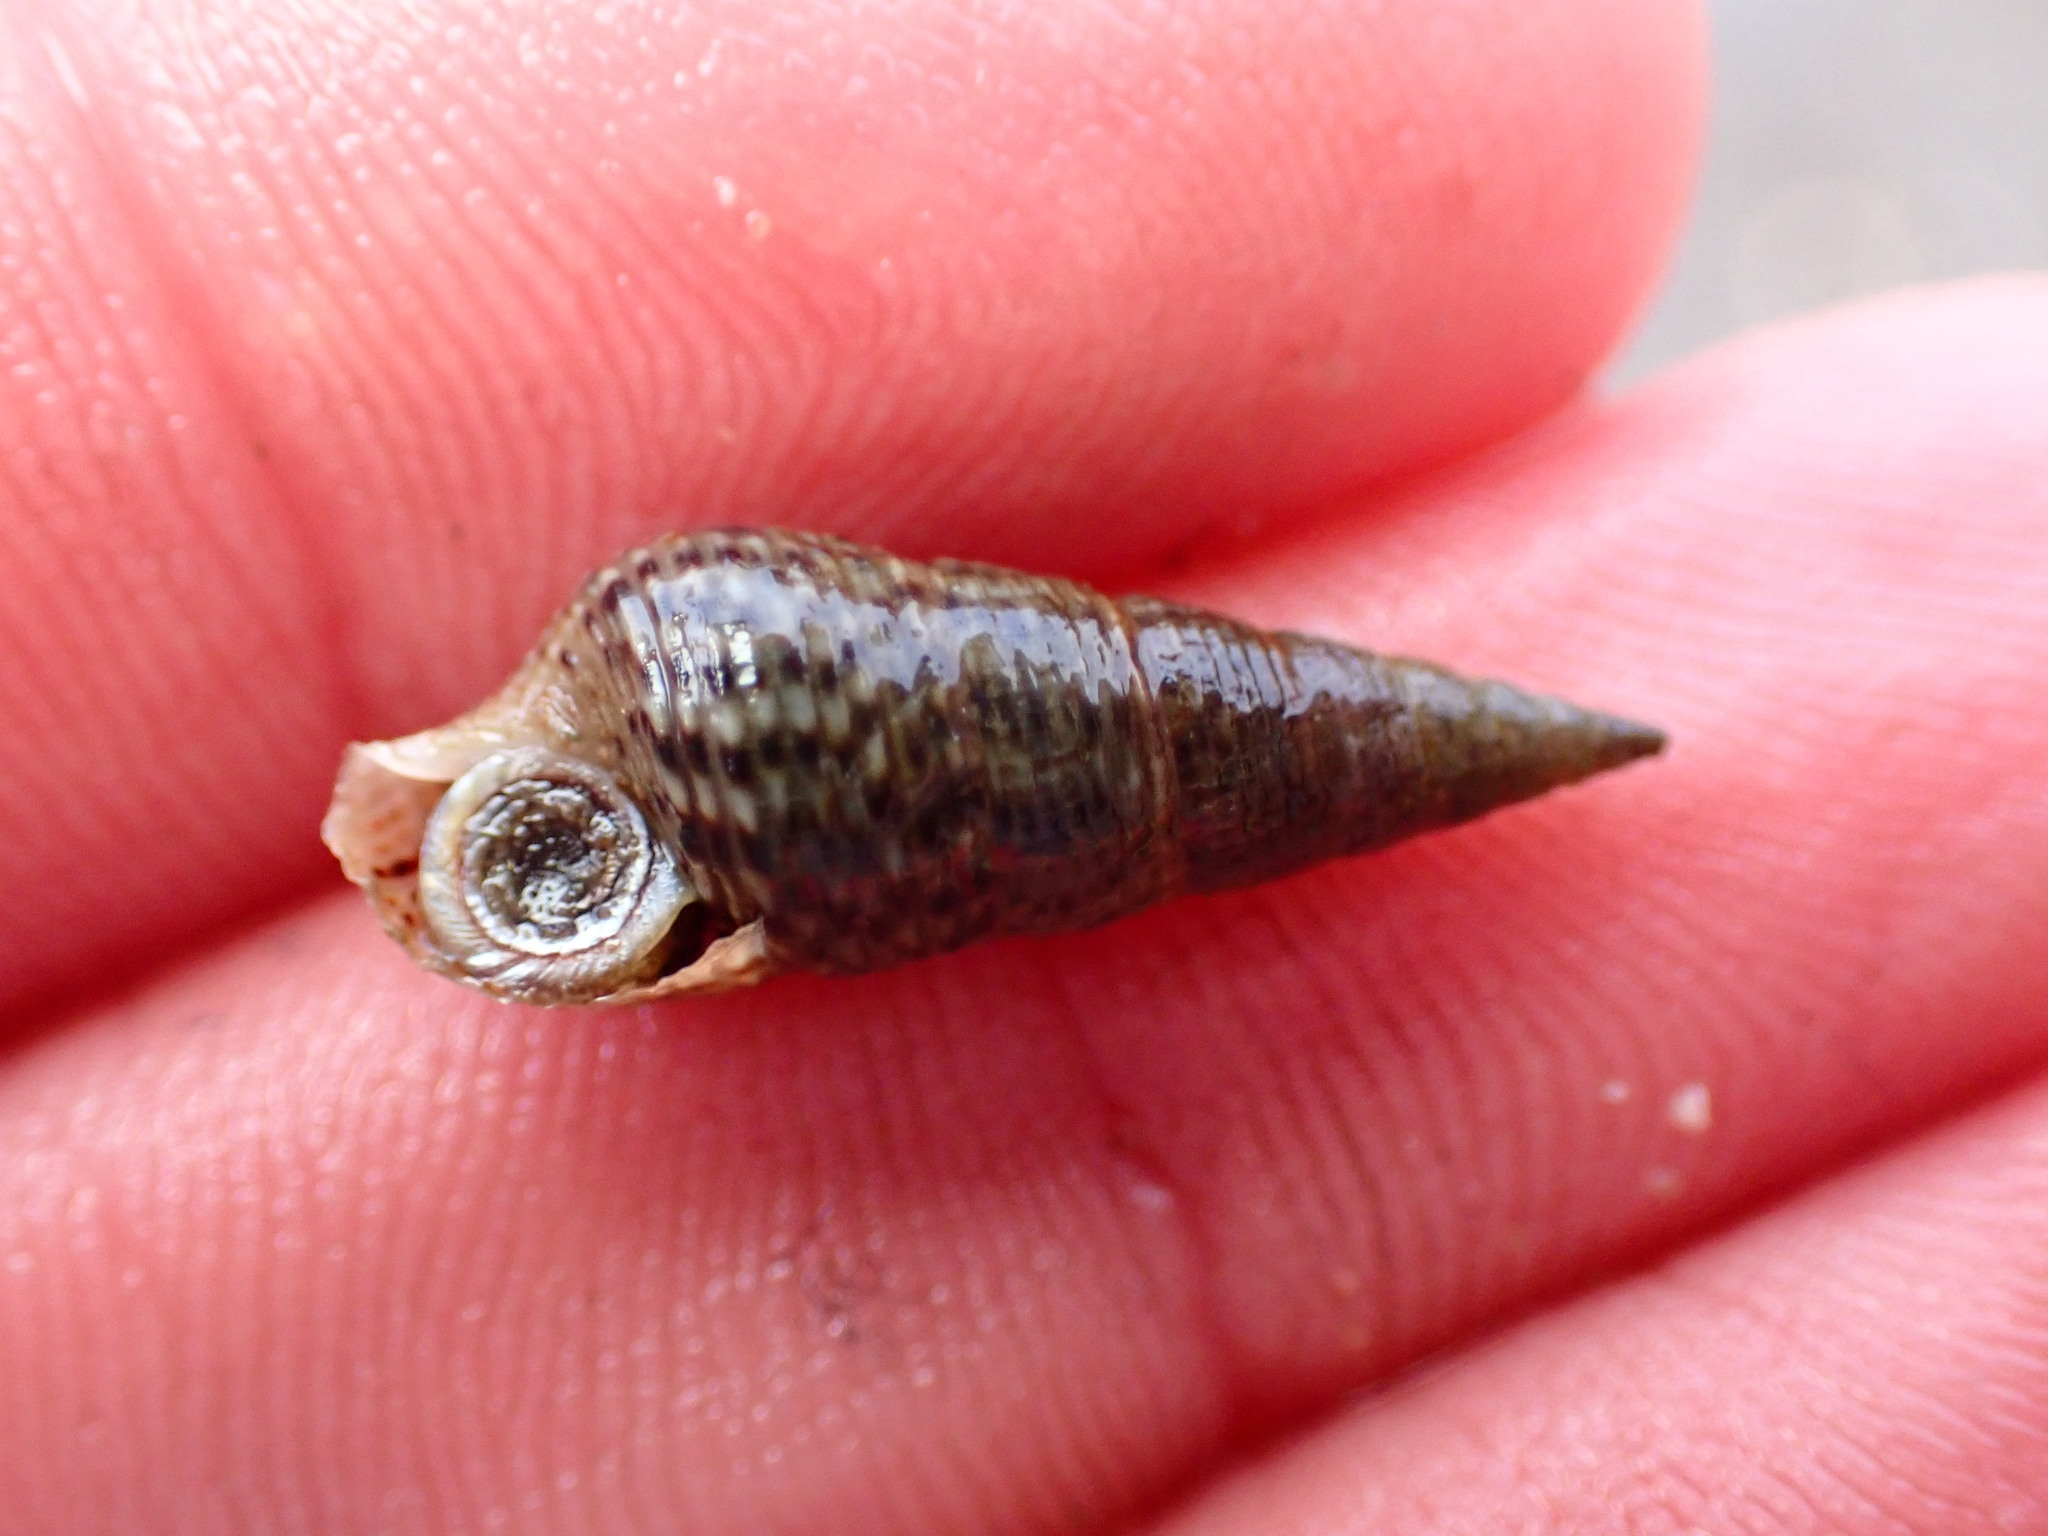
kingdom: Animalia
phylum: Mollusca
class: Gastropoda
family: Batillariidae
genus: Batillaria
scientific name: Batillaria attramentaria
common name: Japanese false cerith
